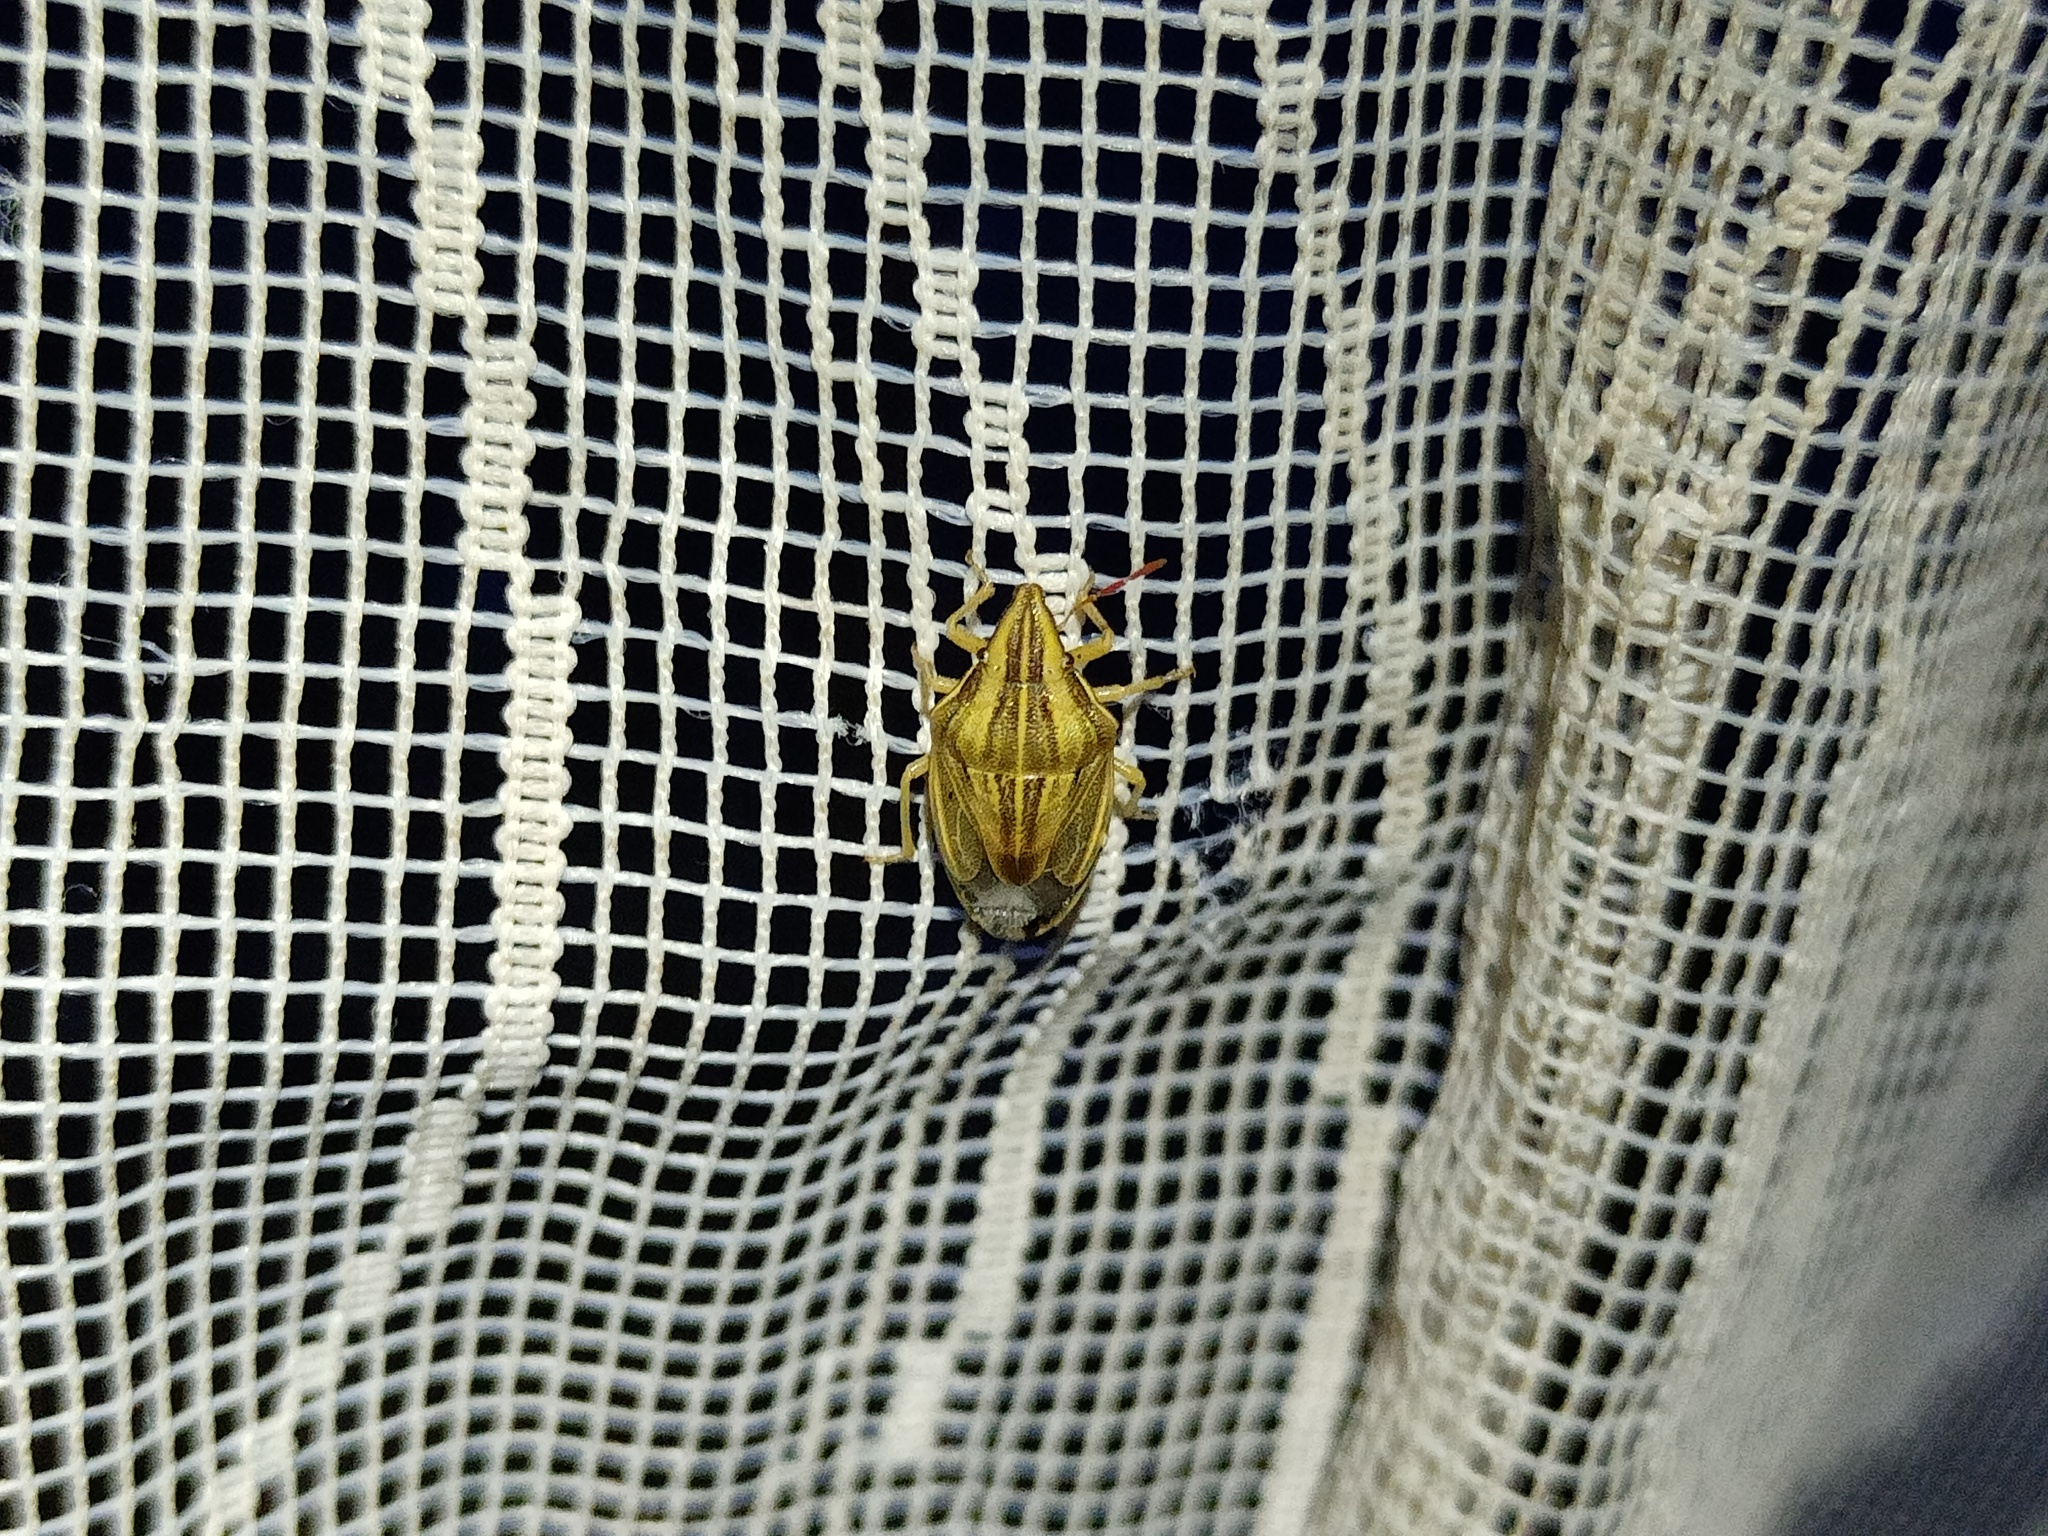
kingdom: Animalia
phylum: Arthropoda
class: Insecta
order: Hemiptera
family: Pentatomidae
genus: Aelia
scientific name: Aelia acuminata
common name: Bishop's mitre
